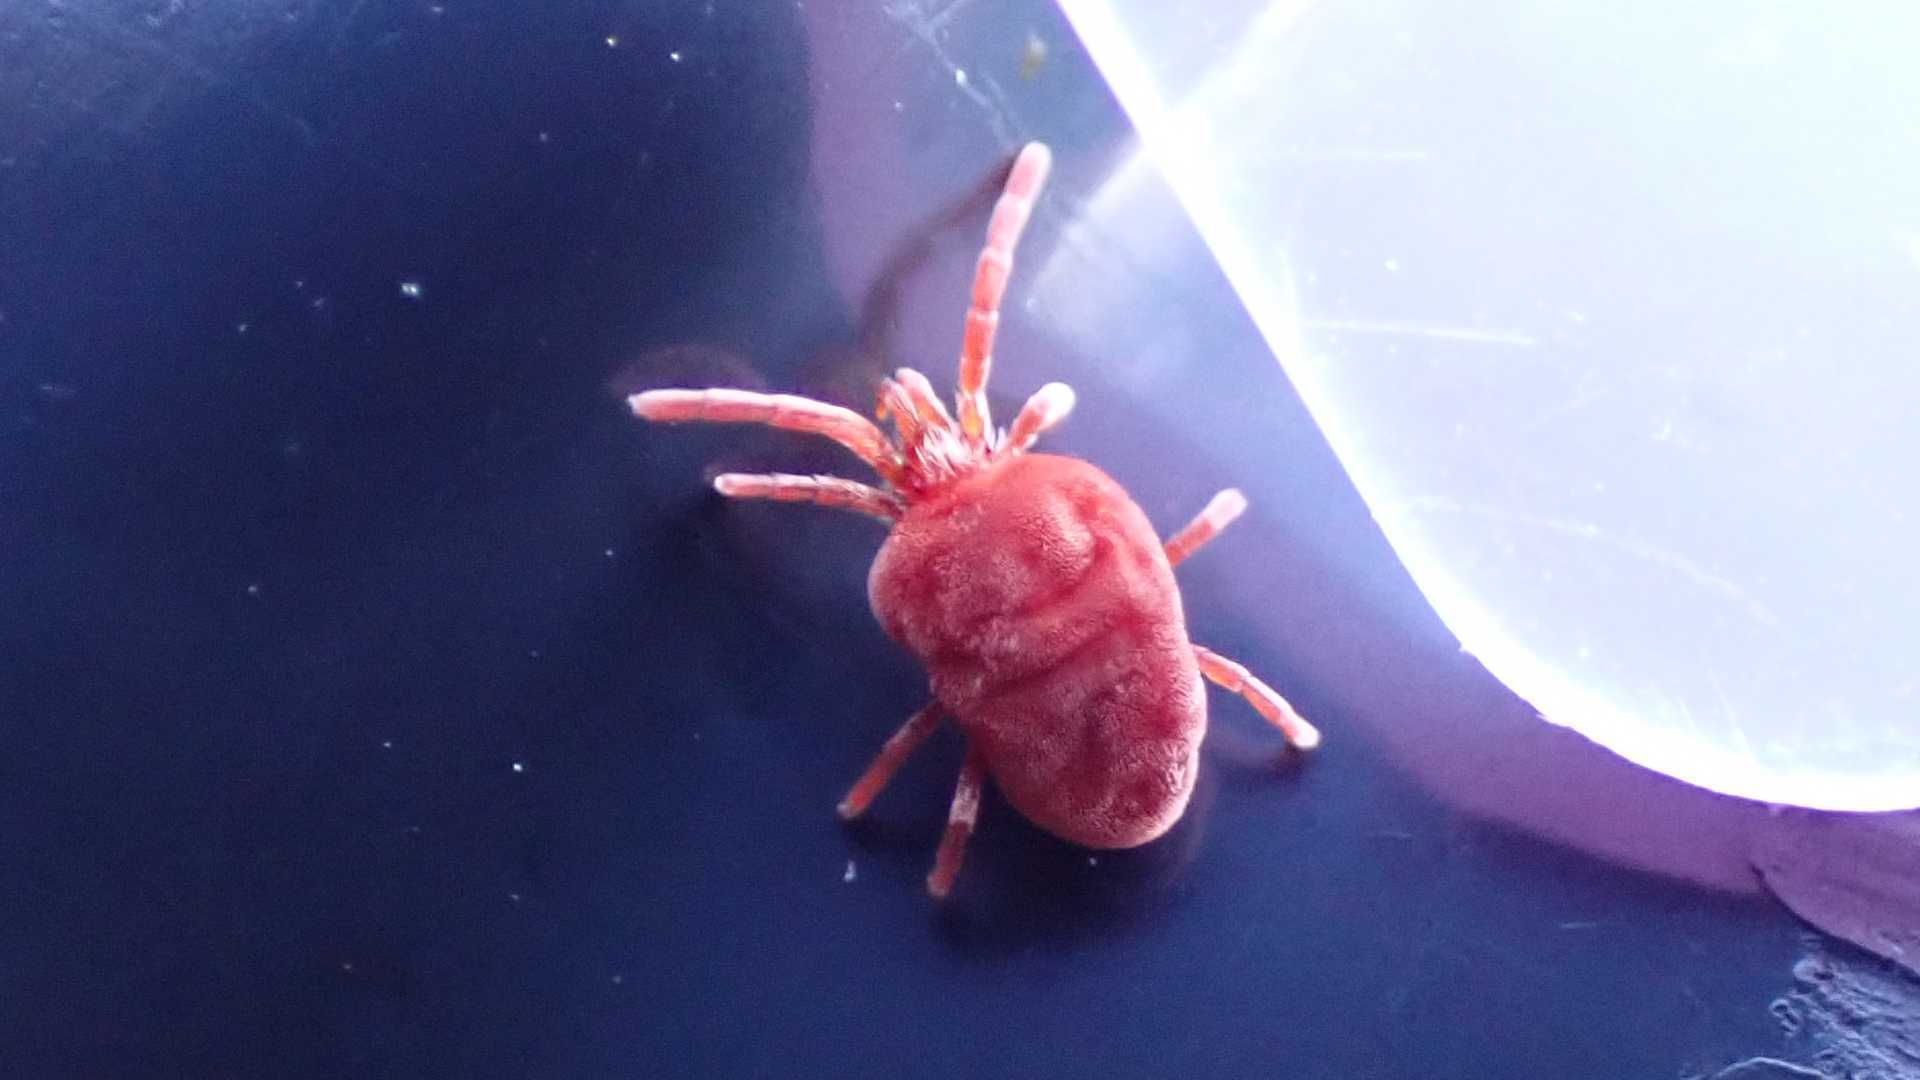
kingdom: Animalia
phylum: Arthropoda
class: Arachnida
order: Trombidiformes
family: Trombidiidae
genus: Allothrombium
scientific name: Allothrombium
